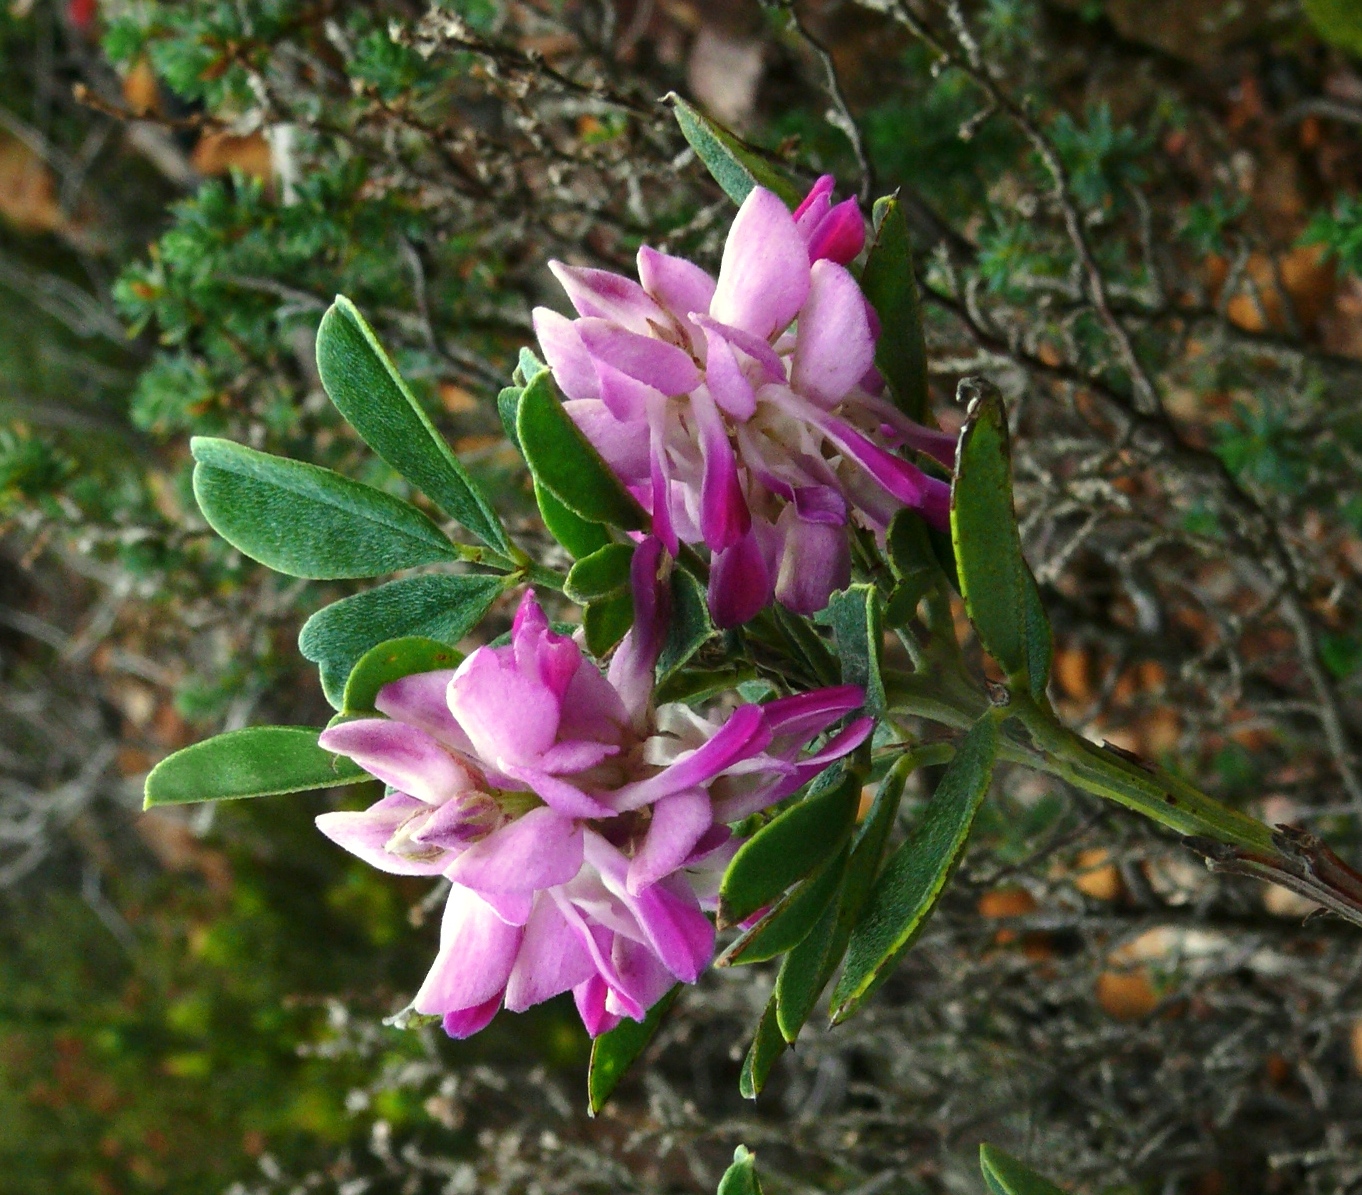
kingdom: Plantae
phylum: Tracheophyta
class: Magnoliopsida
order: Fabales
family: Fabaceae
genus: Indigofera
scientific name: Indigofera cytisoides
